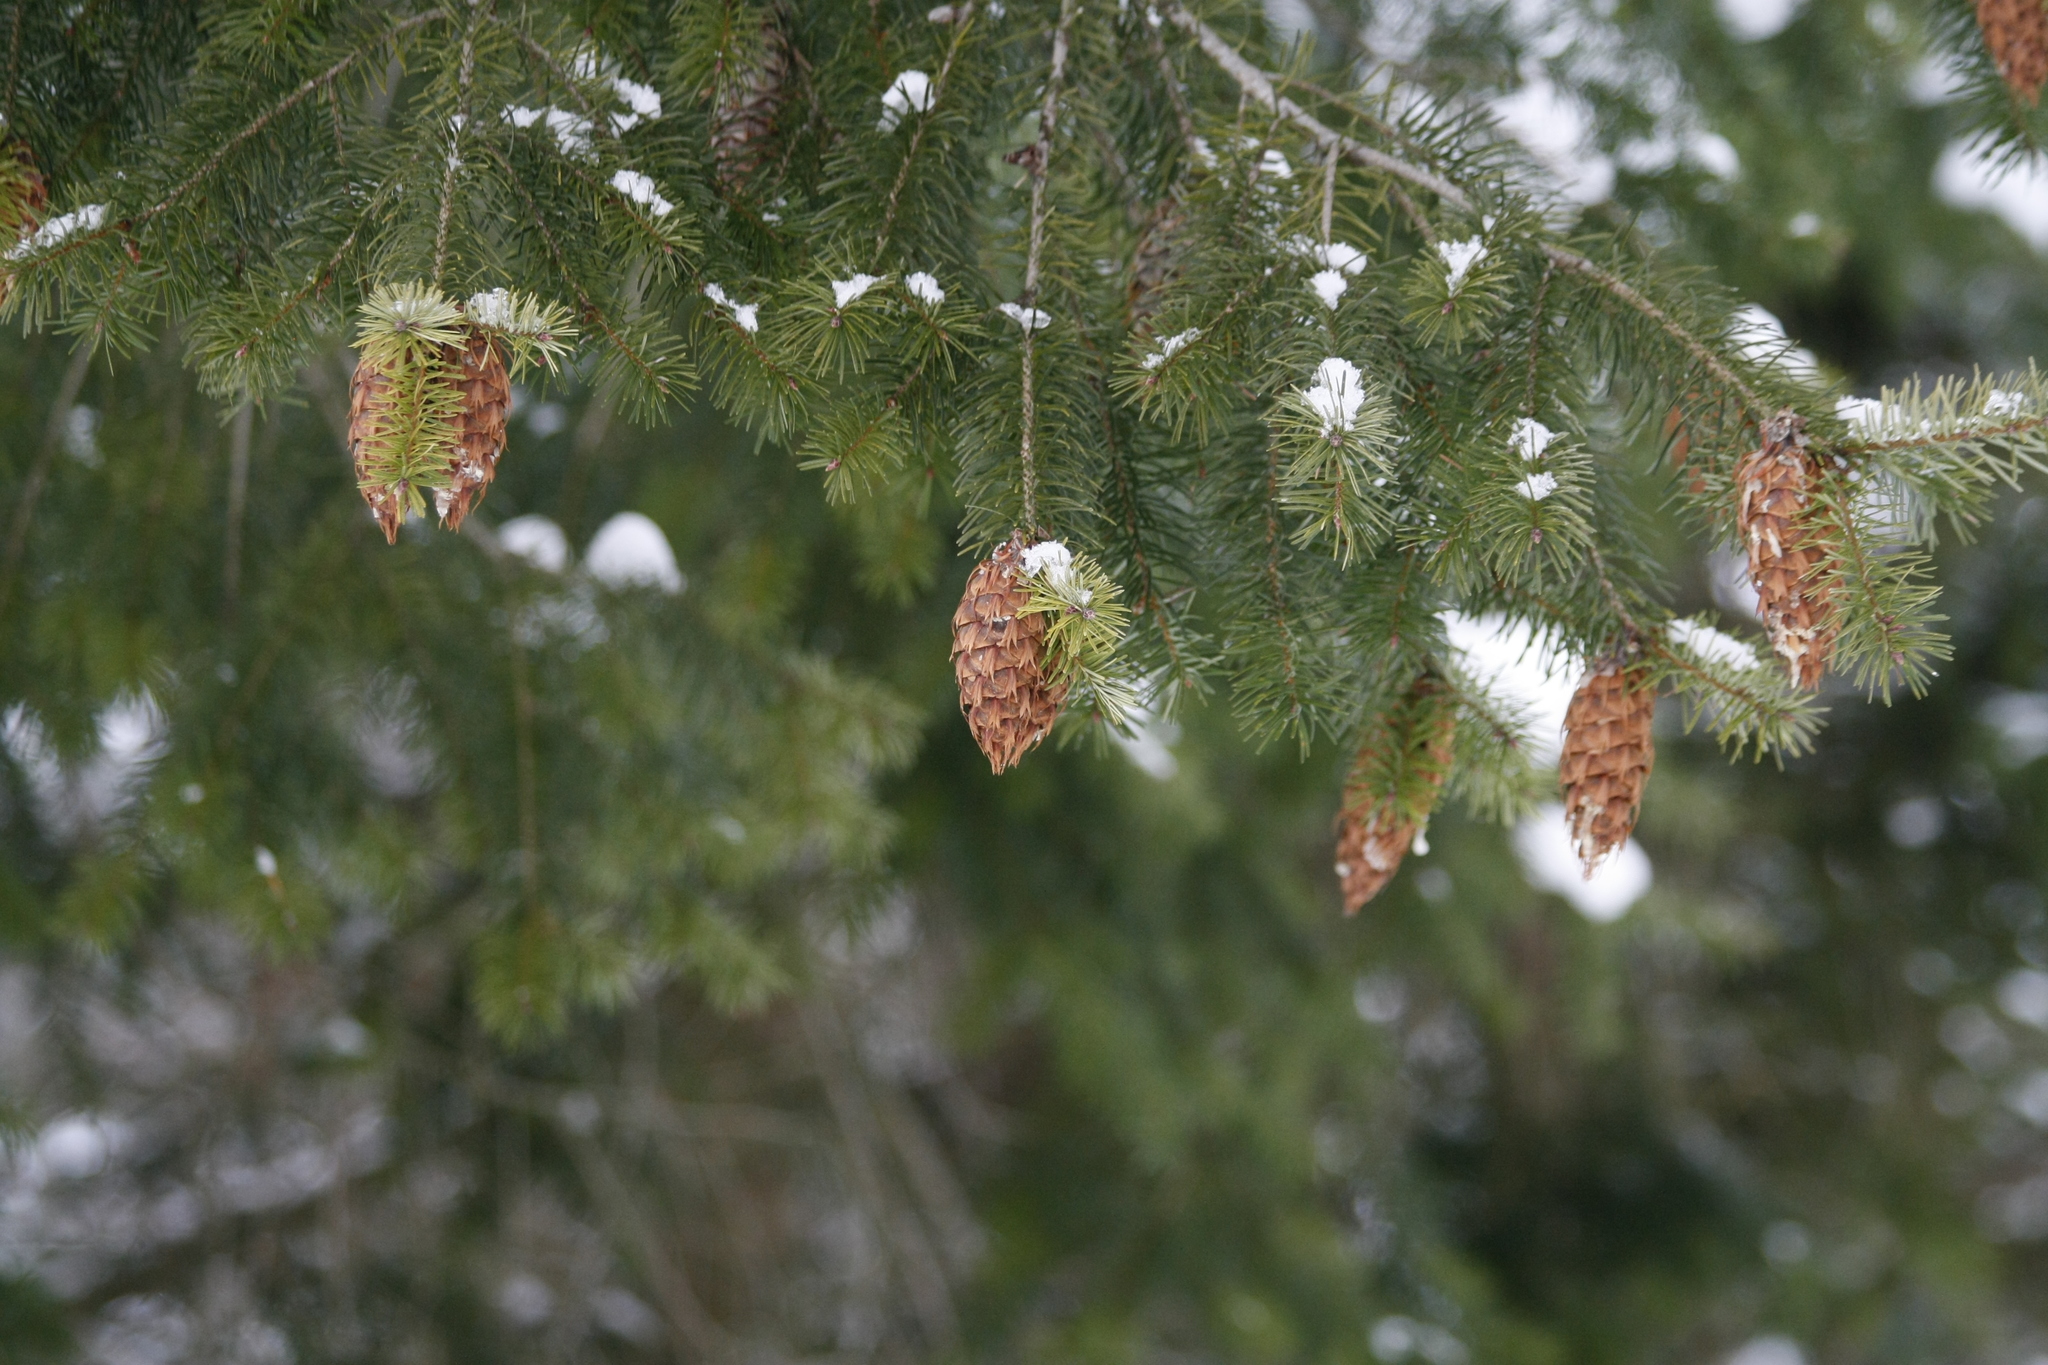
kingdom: Plantae
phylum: Tracheophyta
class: Pinopsida
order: Pinales
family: Pinaceae
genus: Pseudotsuga
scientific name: Pseudotsuga menziesii
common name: Douglas fir
